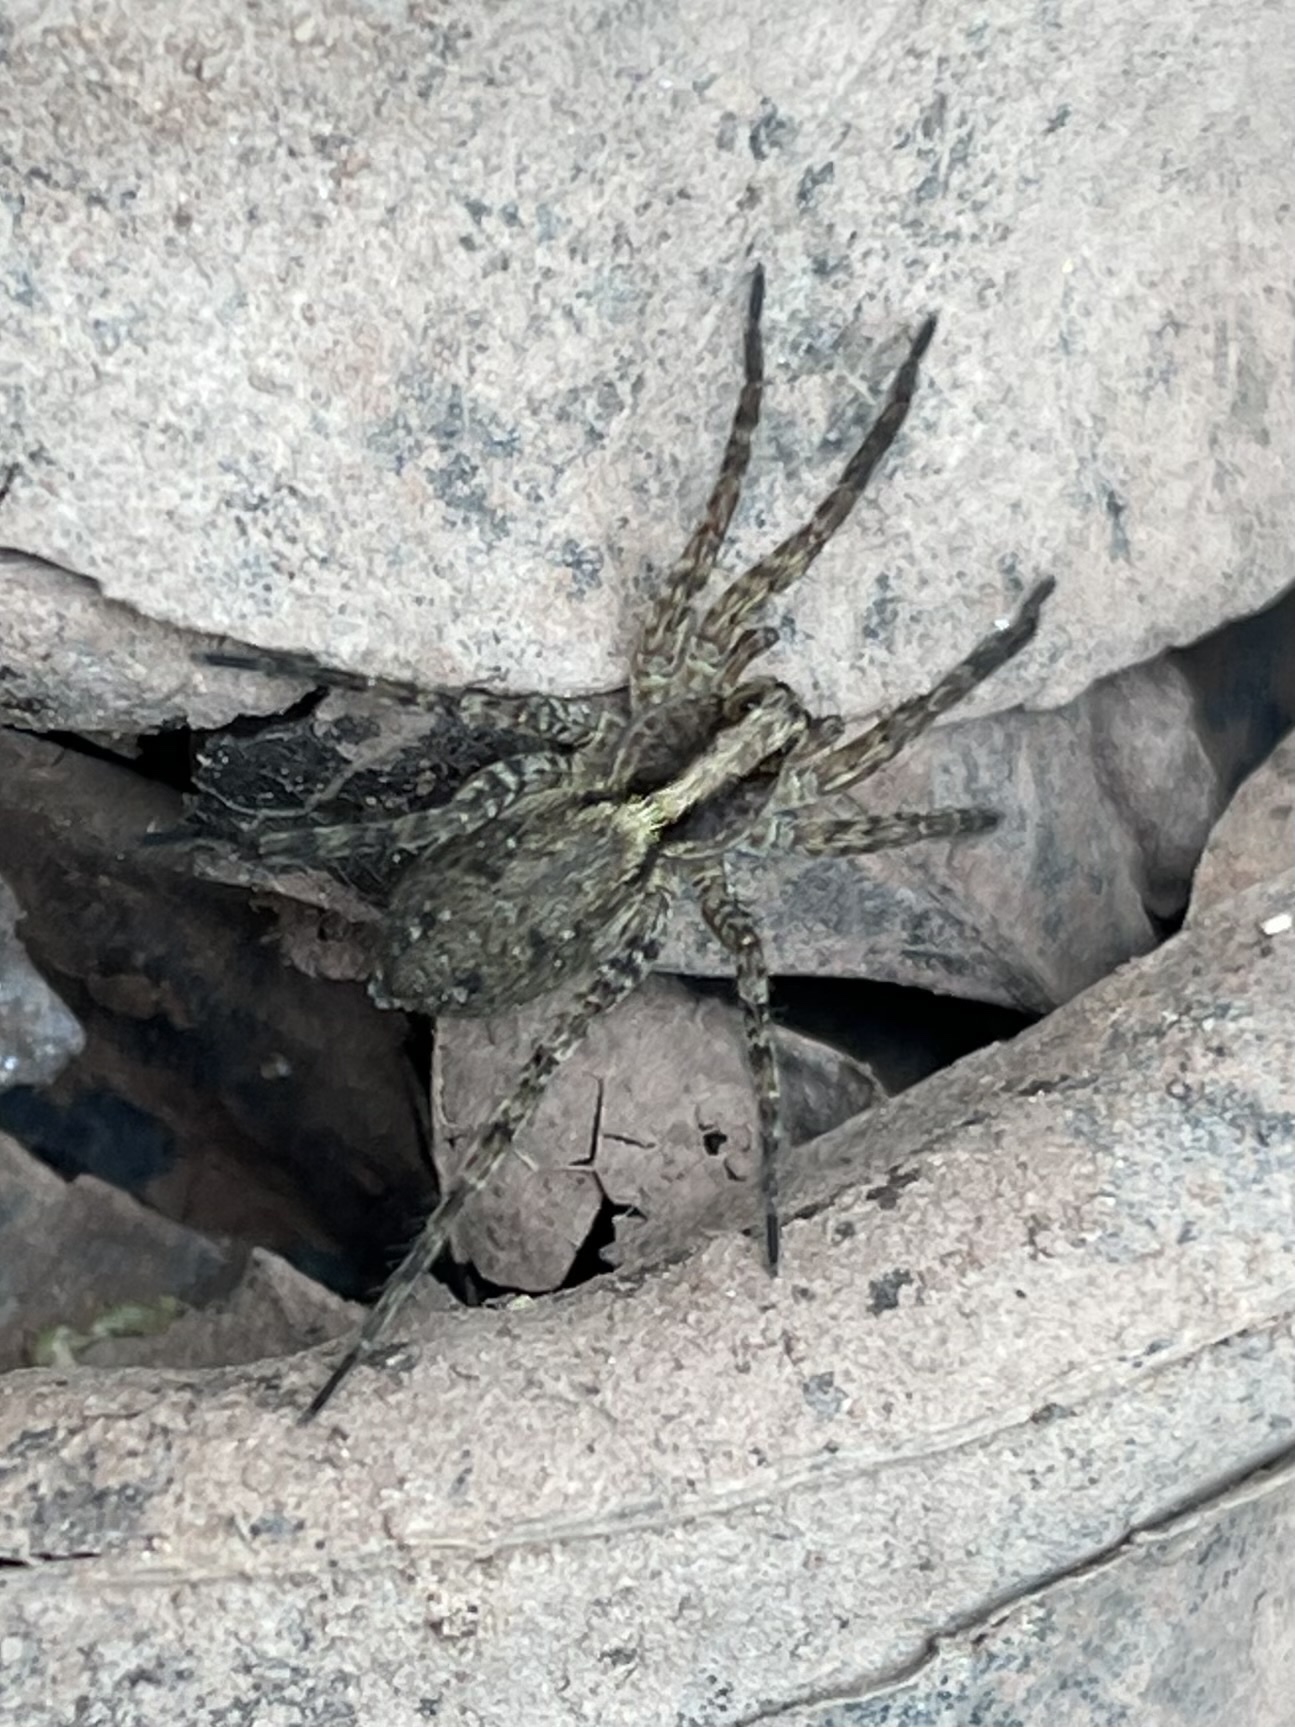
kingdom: Animalia
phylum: Arthropoda
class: Arachnida
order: Araneae
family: Lycosidae
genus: Schizocosa
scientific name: Schizocosa retrorsa
